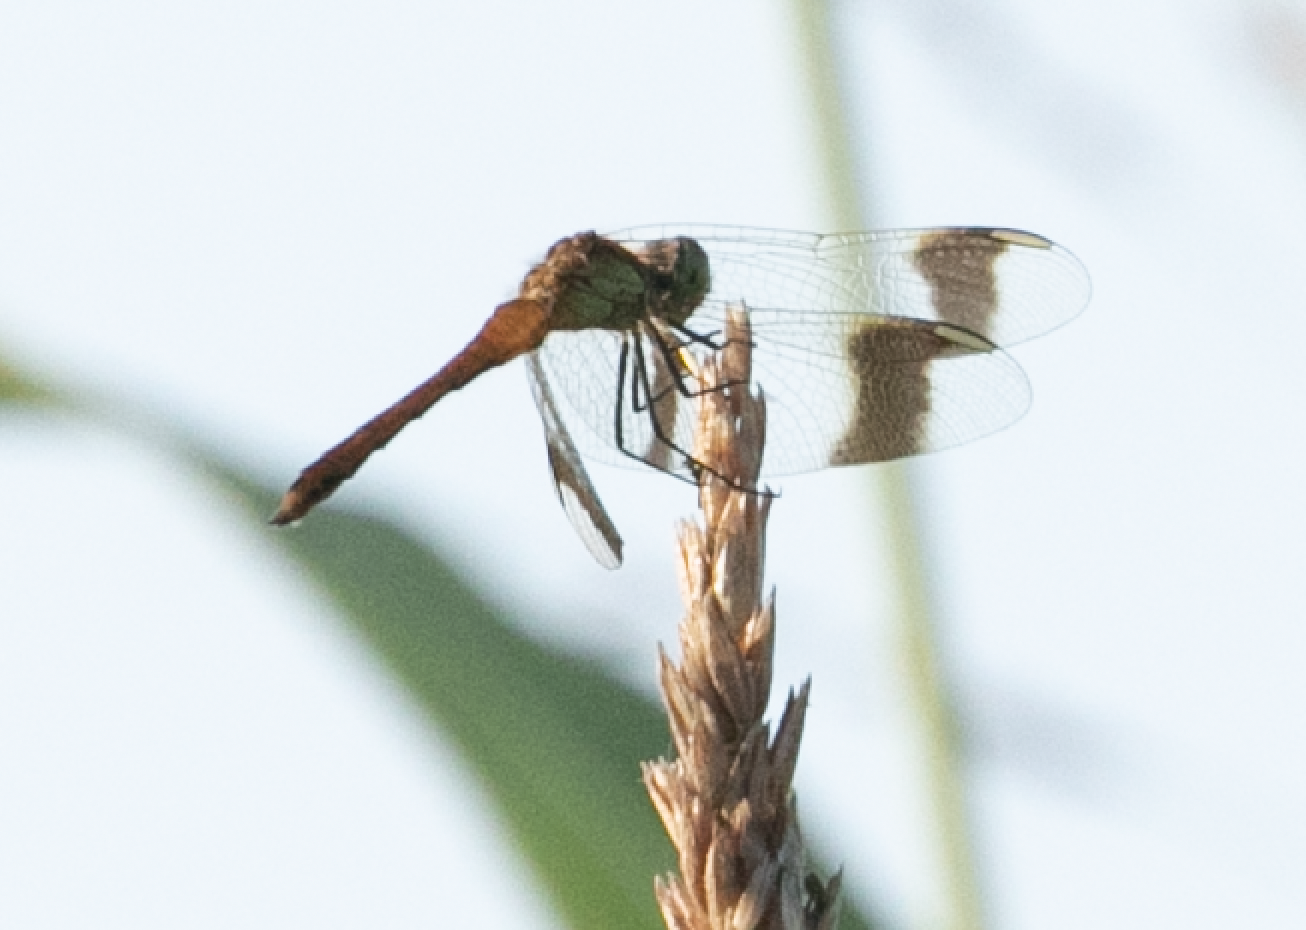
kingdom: Animalia
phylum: Arthropoda
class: Insecta
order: Odonata
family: Libellulidae
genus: Sympetrum
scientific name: Sympetrum pedemontanum
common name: Banded darter
